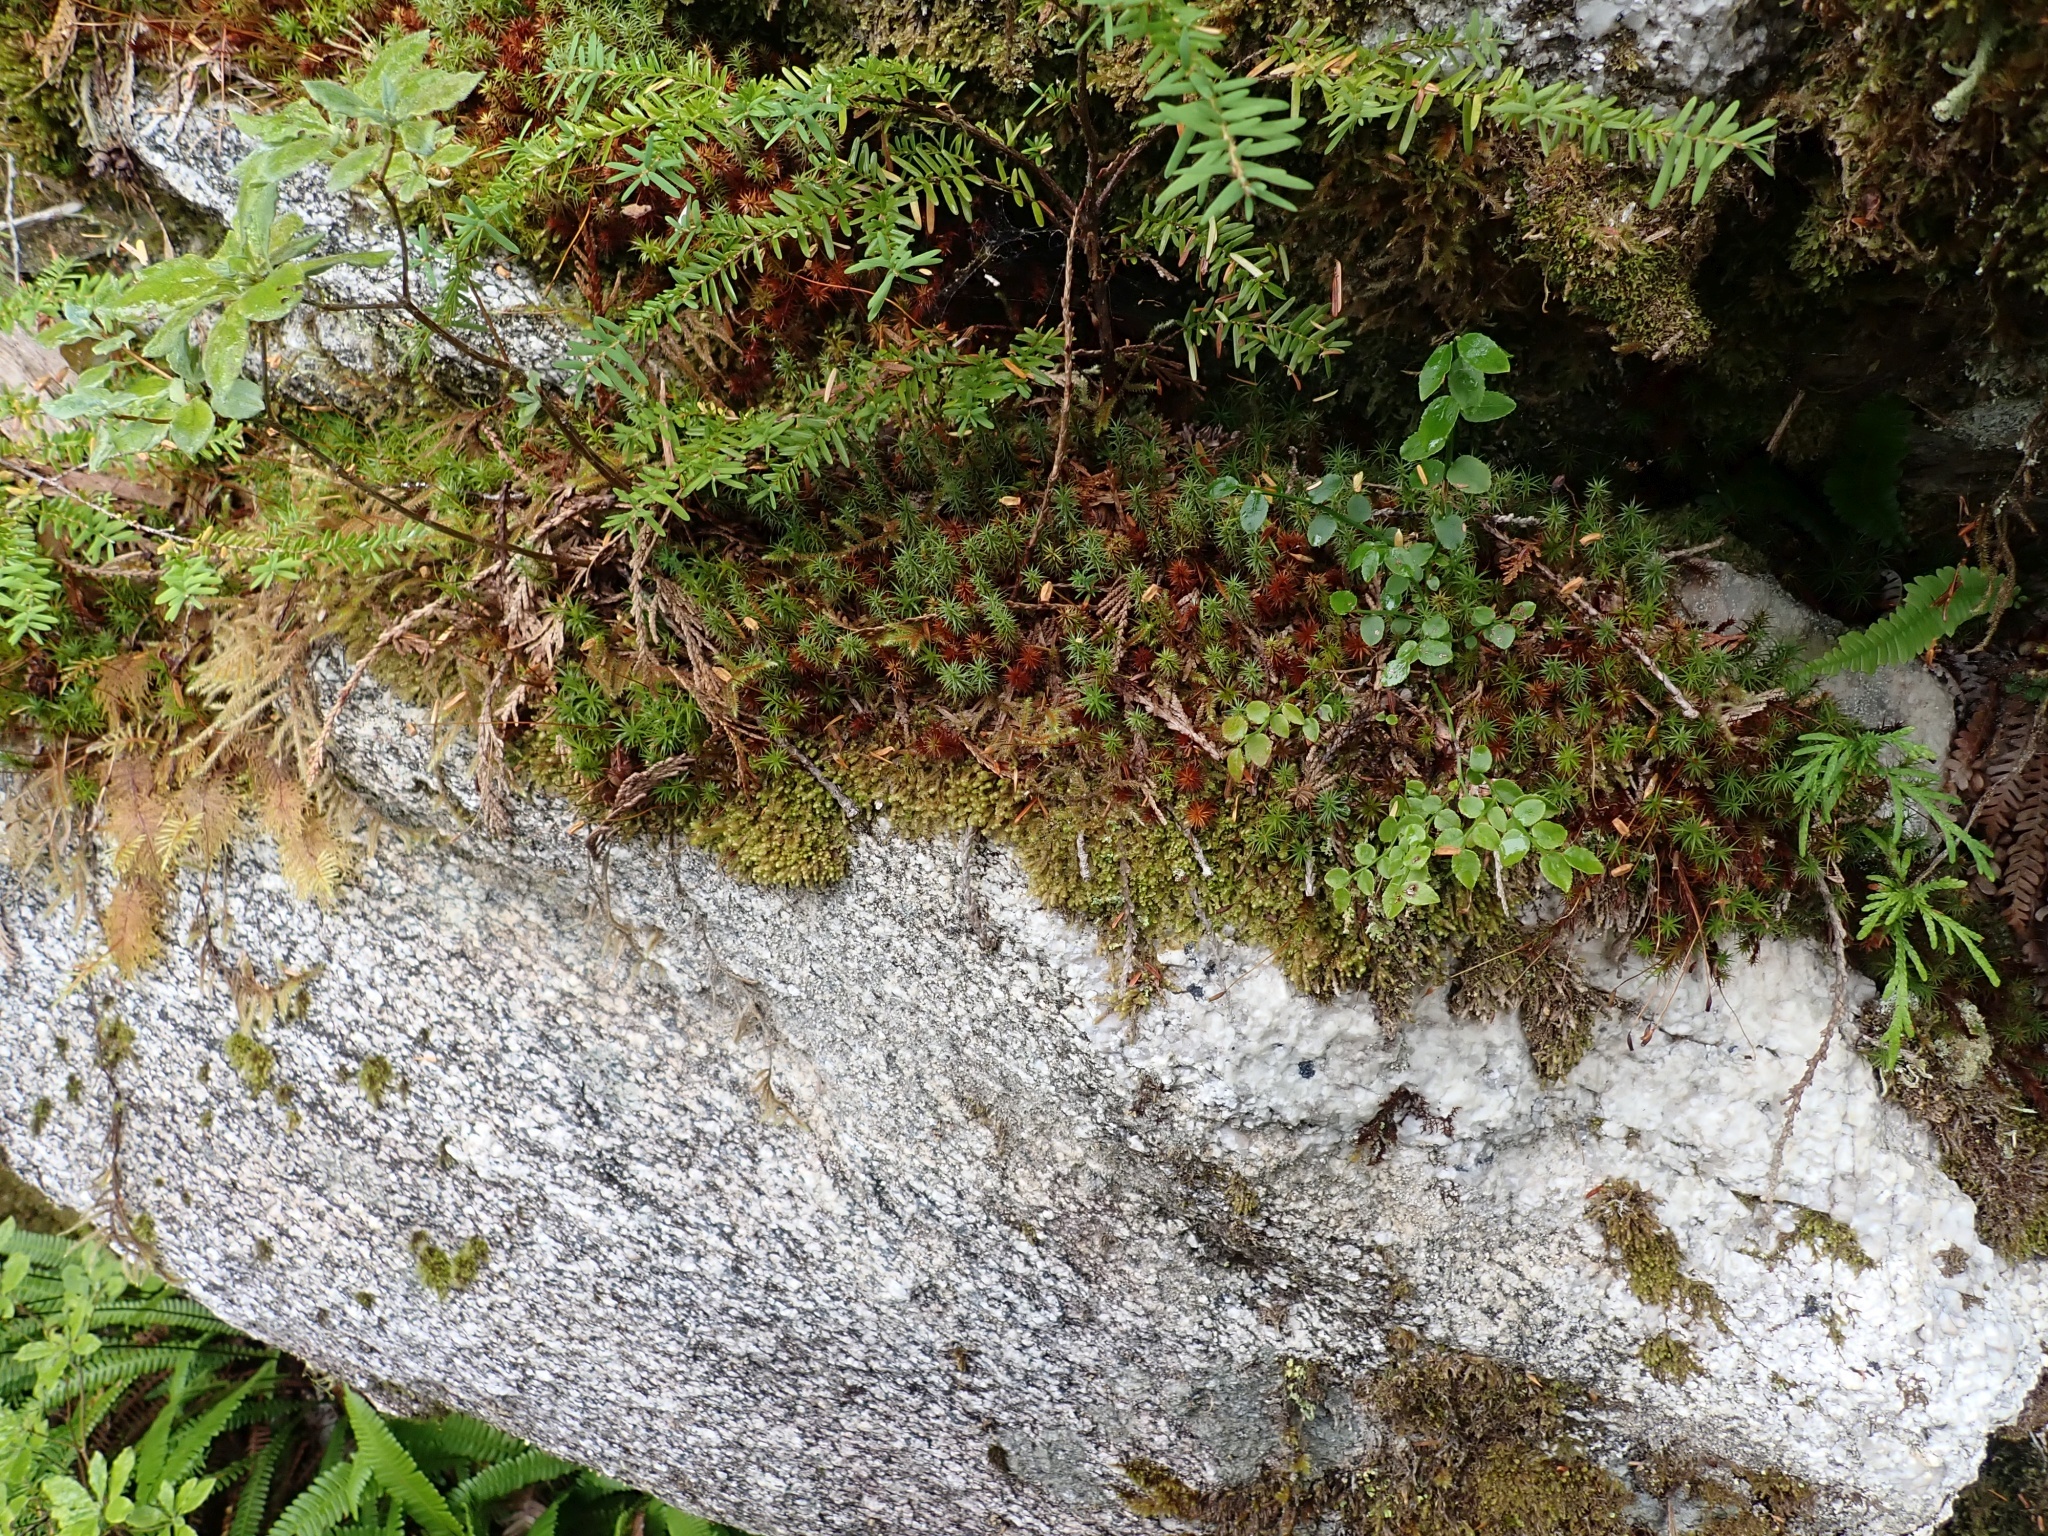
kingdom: Plantae
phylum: Bryophyta
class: Polytrichopsida
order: Polytrichales
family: Polytrichaceae
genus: Polytrichum
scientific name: Polytrichum juniperinum
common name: Juniper haircap moss
